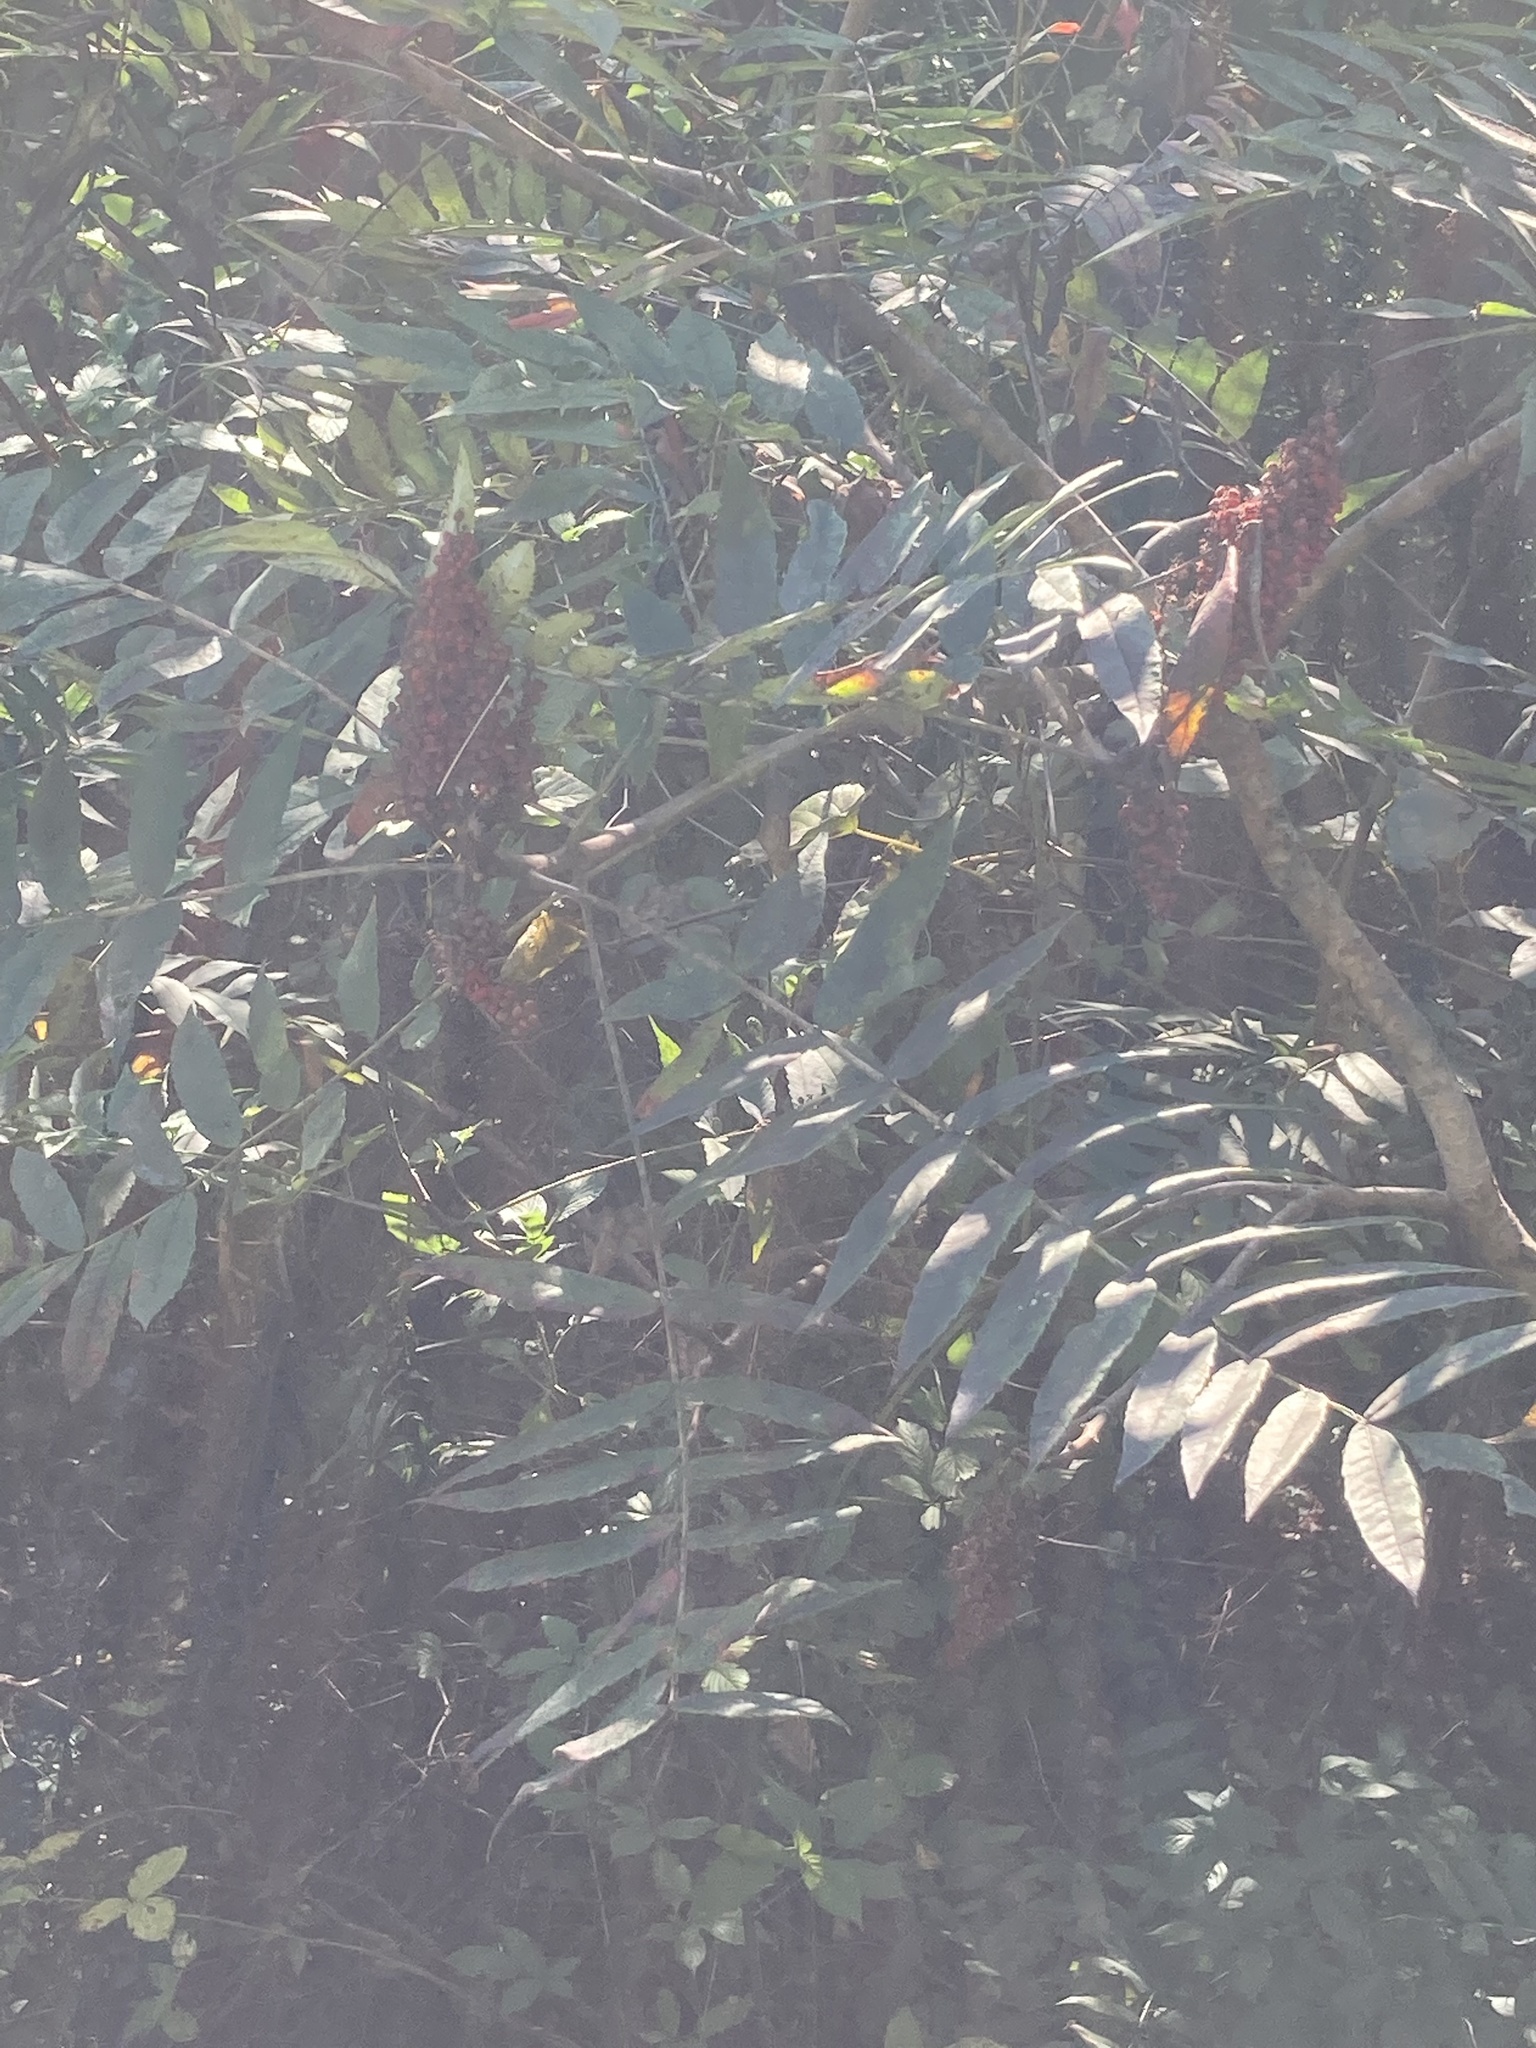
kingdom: Plantae
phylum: Tracheophyta
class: Magnoliopsida
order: Sapindales
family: Anacardiaceae
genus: Rhus
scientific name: Rhus glabra
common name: Scarlet sumac
